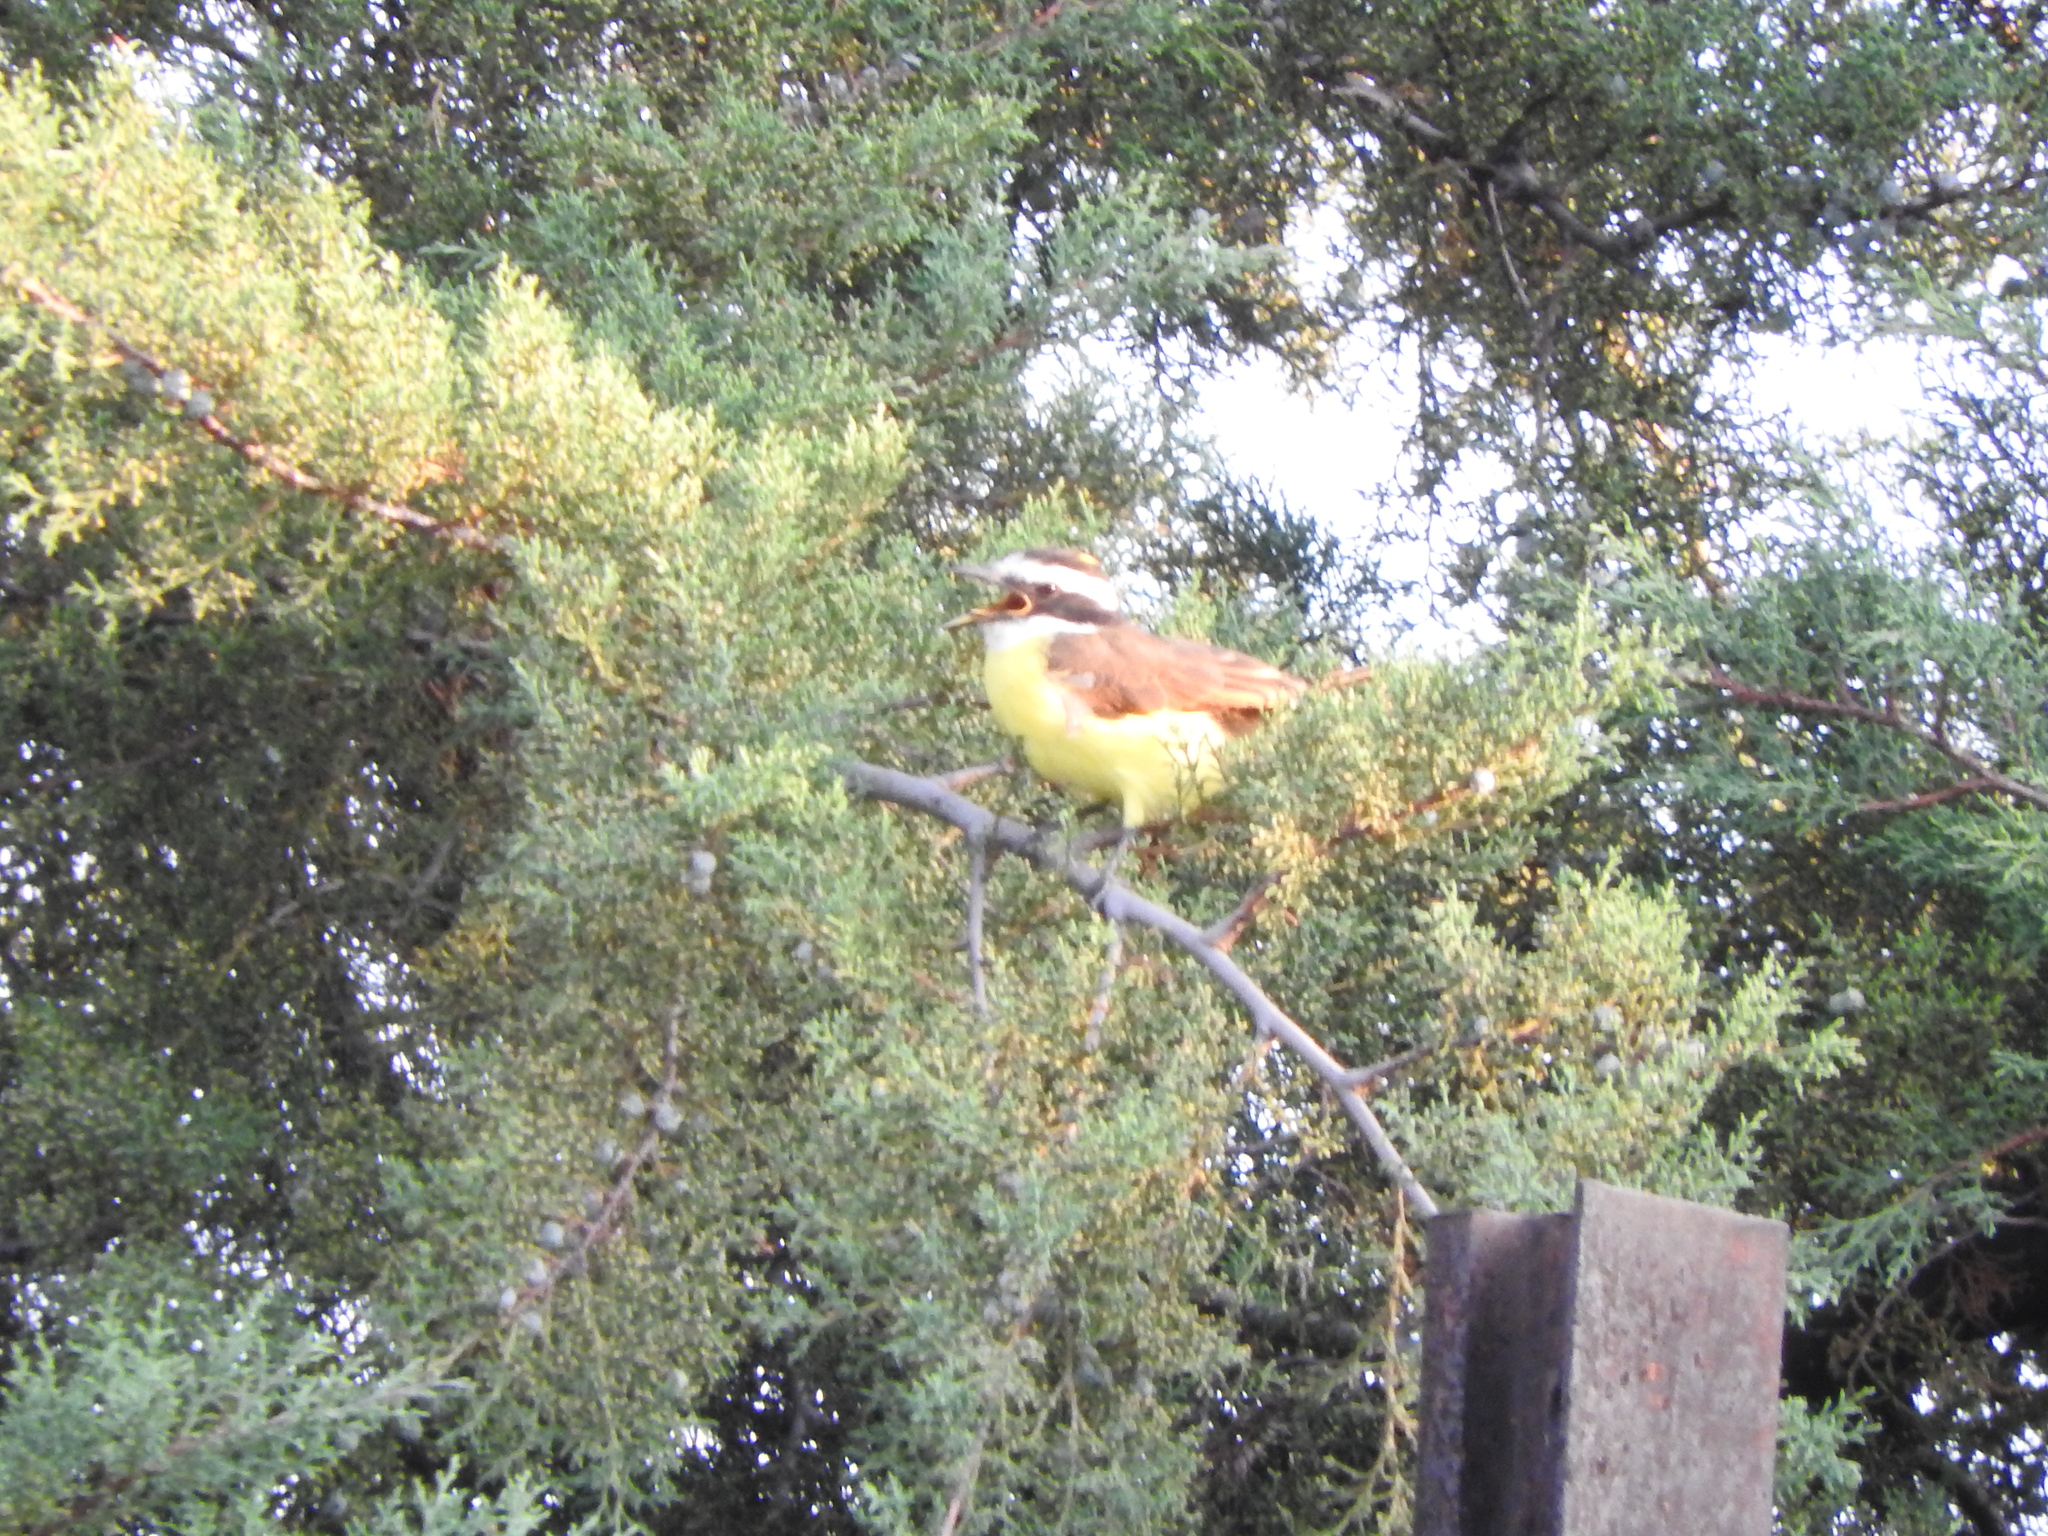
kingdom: Animalia
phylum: Chordata
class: Aves
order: Passeriformes
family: Tyrannidae
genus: Pitangus
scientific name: Pitangus sulphuratus
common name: Great kiskadee
